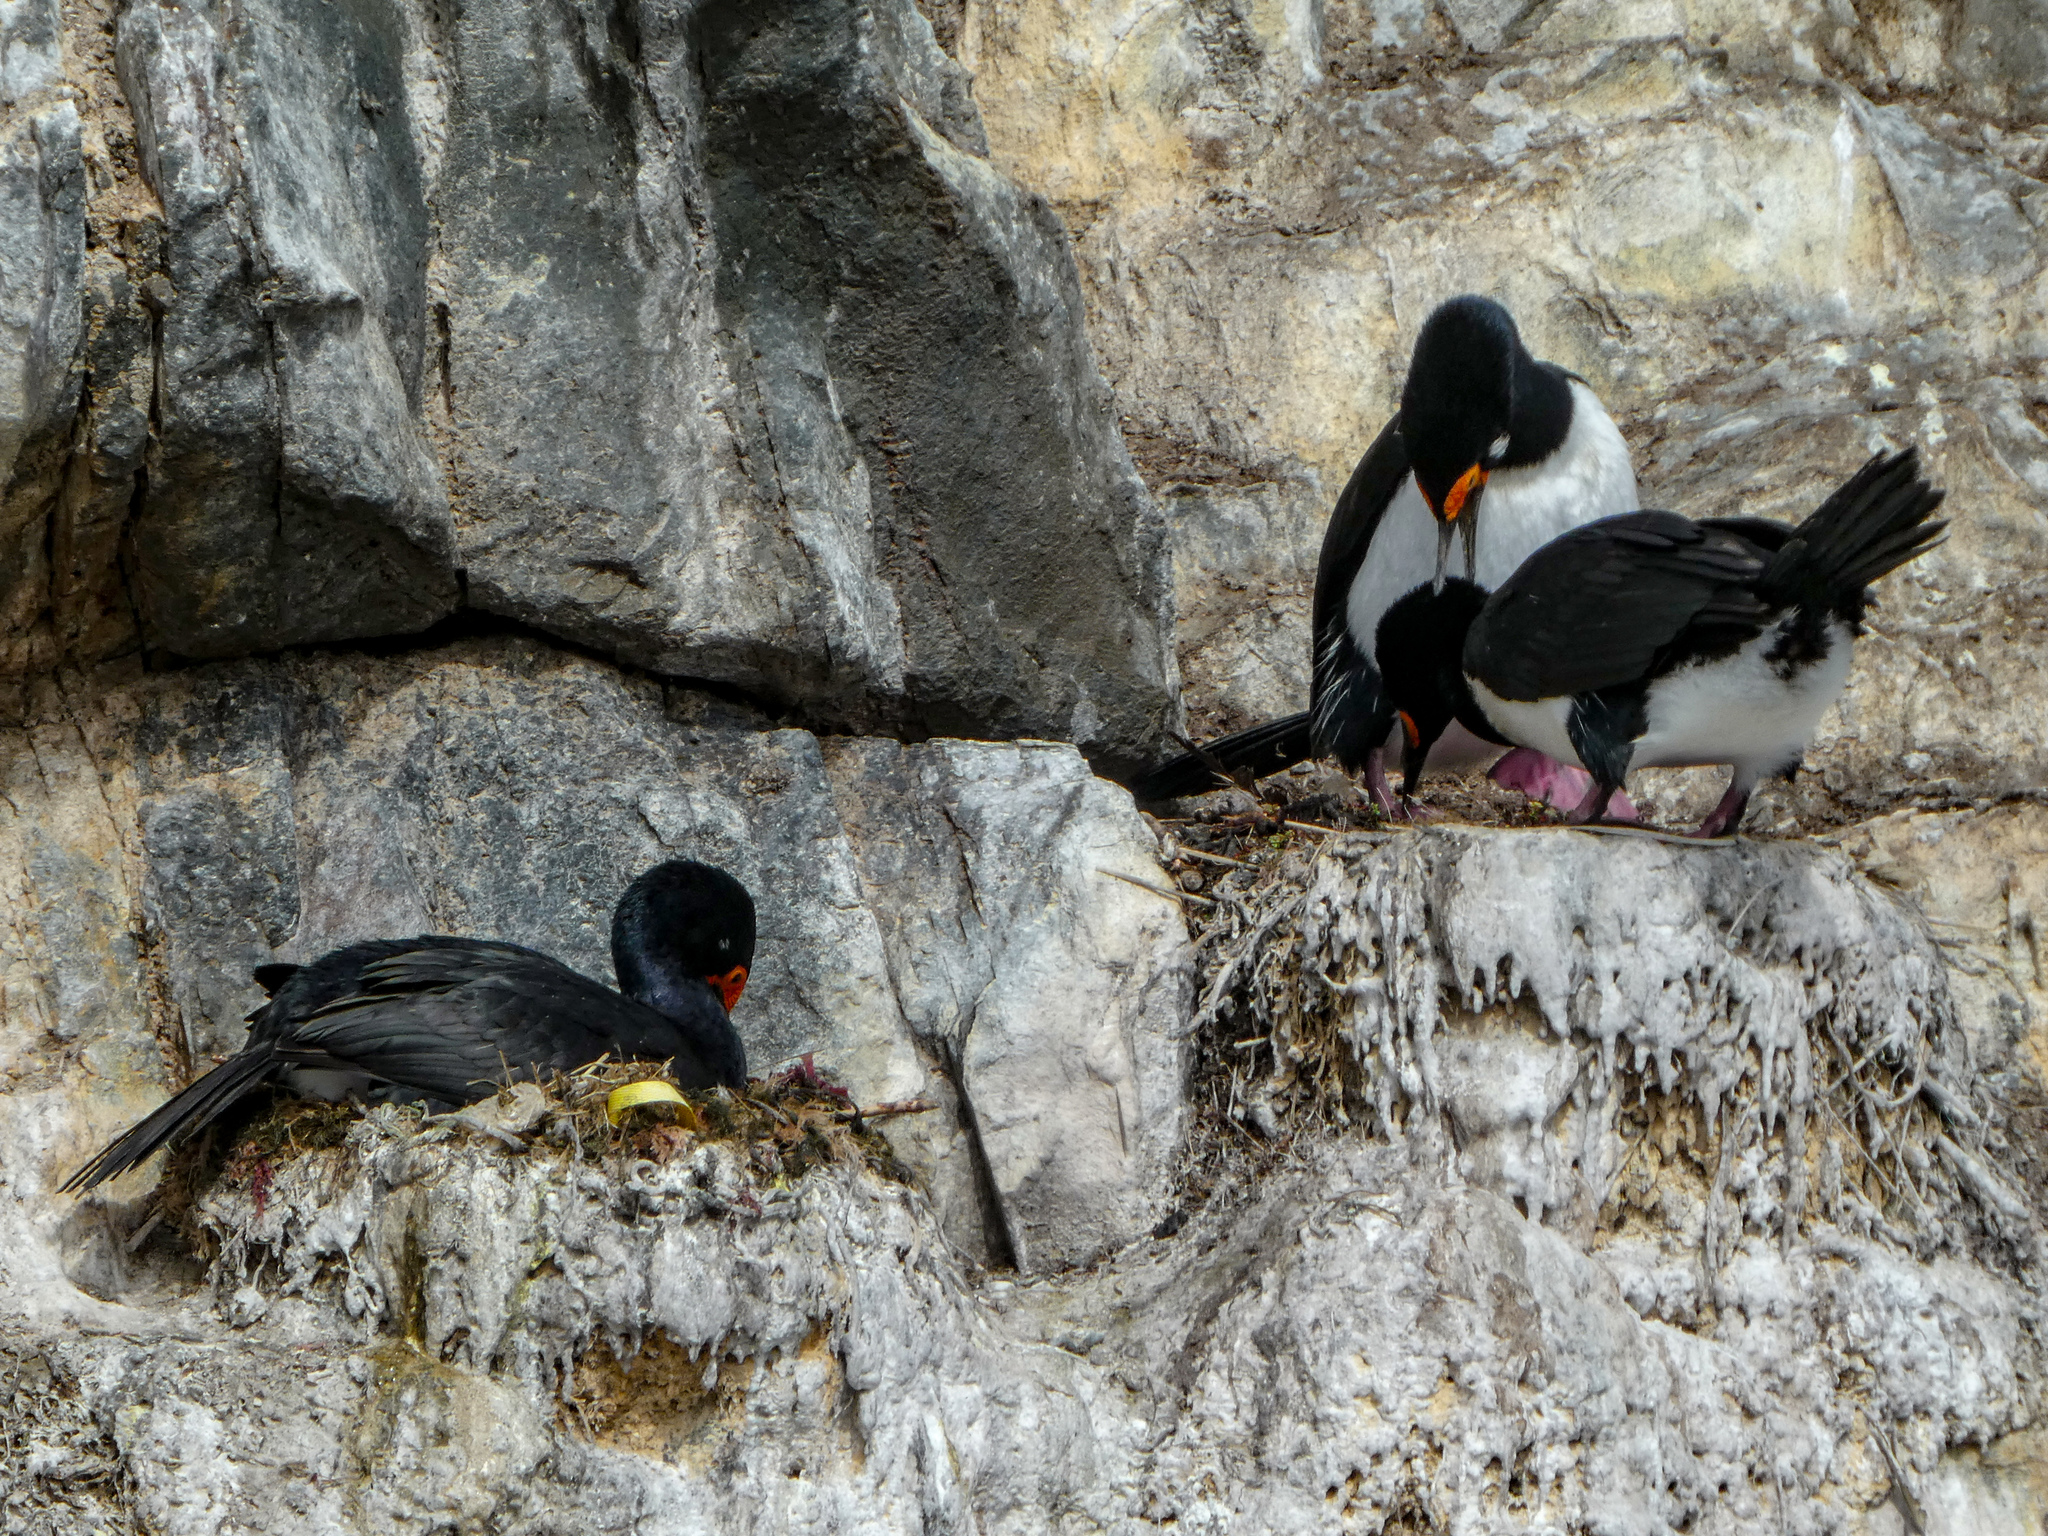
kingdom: Animalia
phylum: Chordata
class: Aves
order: Suliformes
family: Phalacrocoracidae
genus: Phalacrocorax
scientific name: Phalacrocorax magellanicus
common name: Rock shag
